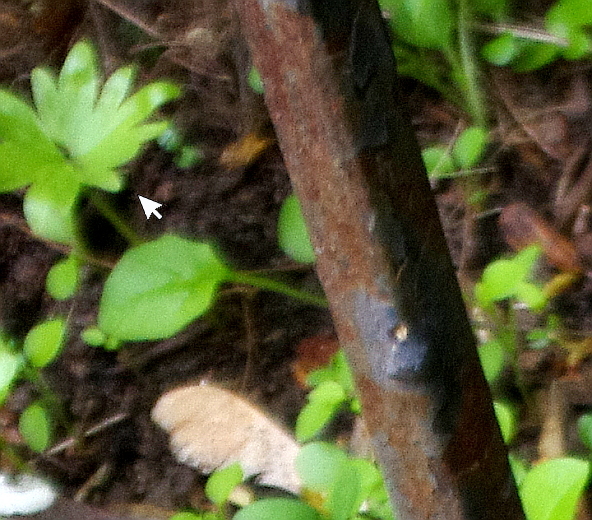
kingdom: Plantae
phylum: Tracheophyta
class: Magnoliopsida
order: Malvales
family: Malvaceae
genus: Tilia
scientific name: Tilia cordata
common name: Small-leaved lime
